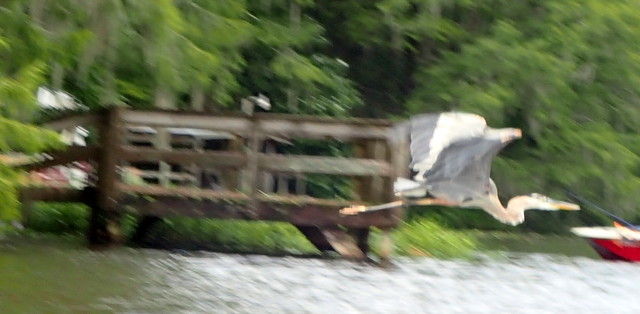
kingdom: Animalia
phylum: Chordata
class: Aves
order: Pelecaniformes
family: Ardeidae
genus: Ardea
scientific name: Ardea herodias
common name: Great blue heron
